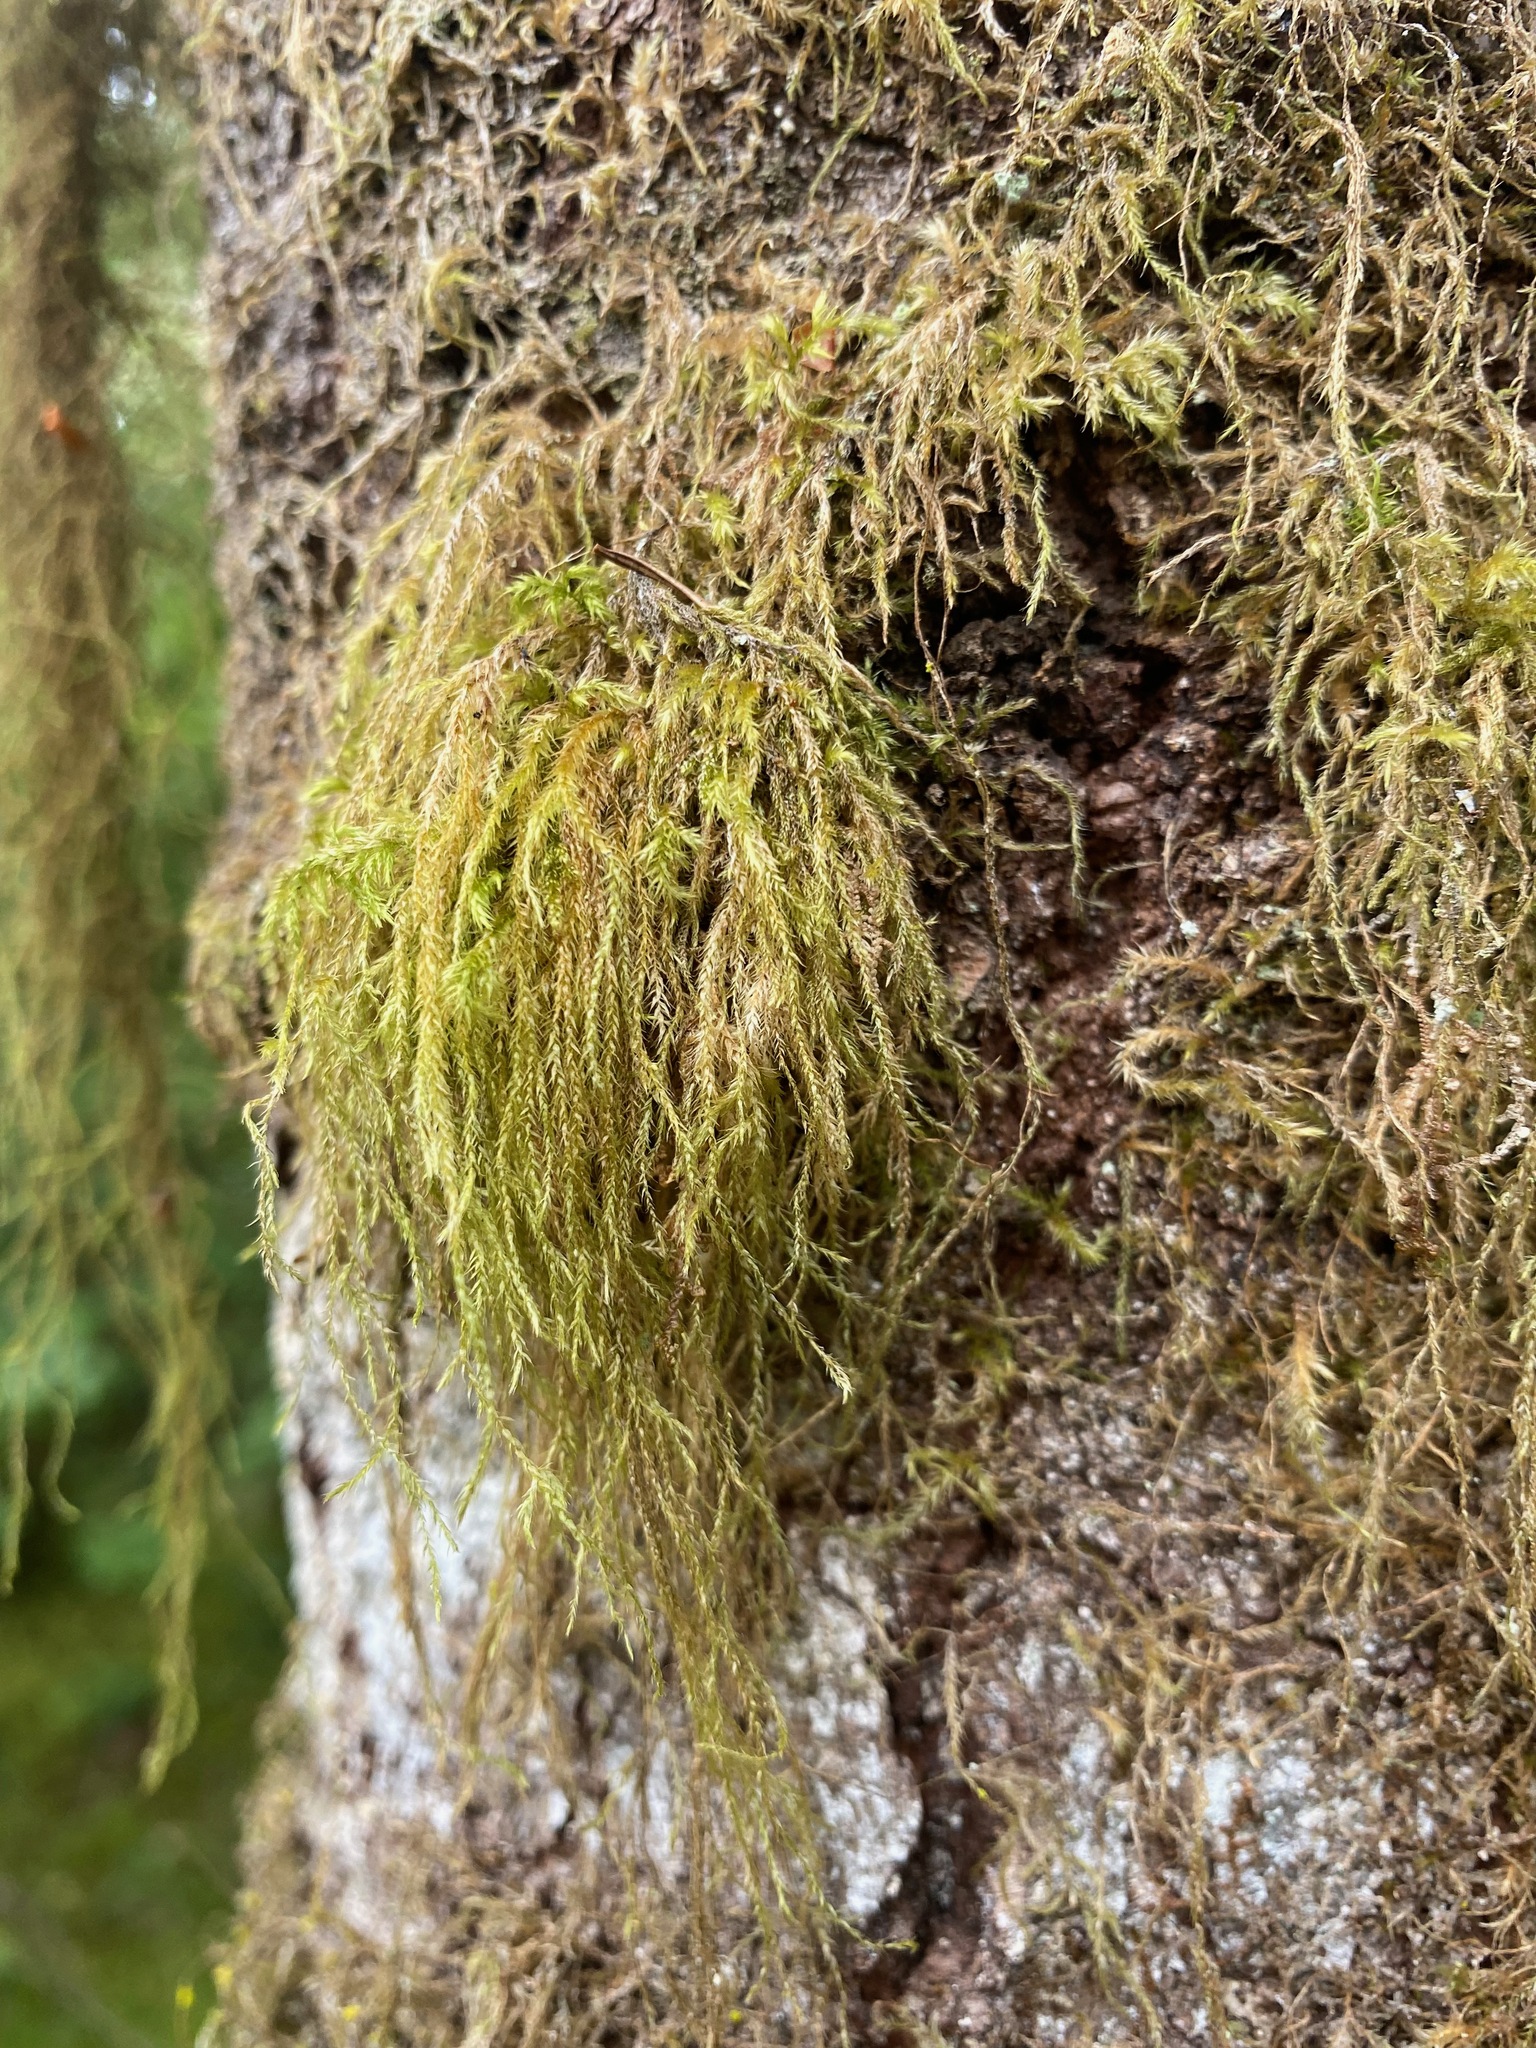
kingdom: Plantae
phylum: Bryophyta
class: Bryopsida
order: Hypnales
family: Lembophyllaceae
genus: Pseudisothecium
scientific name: Pseudisothecium stoloniferum
